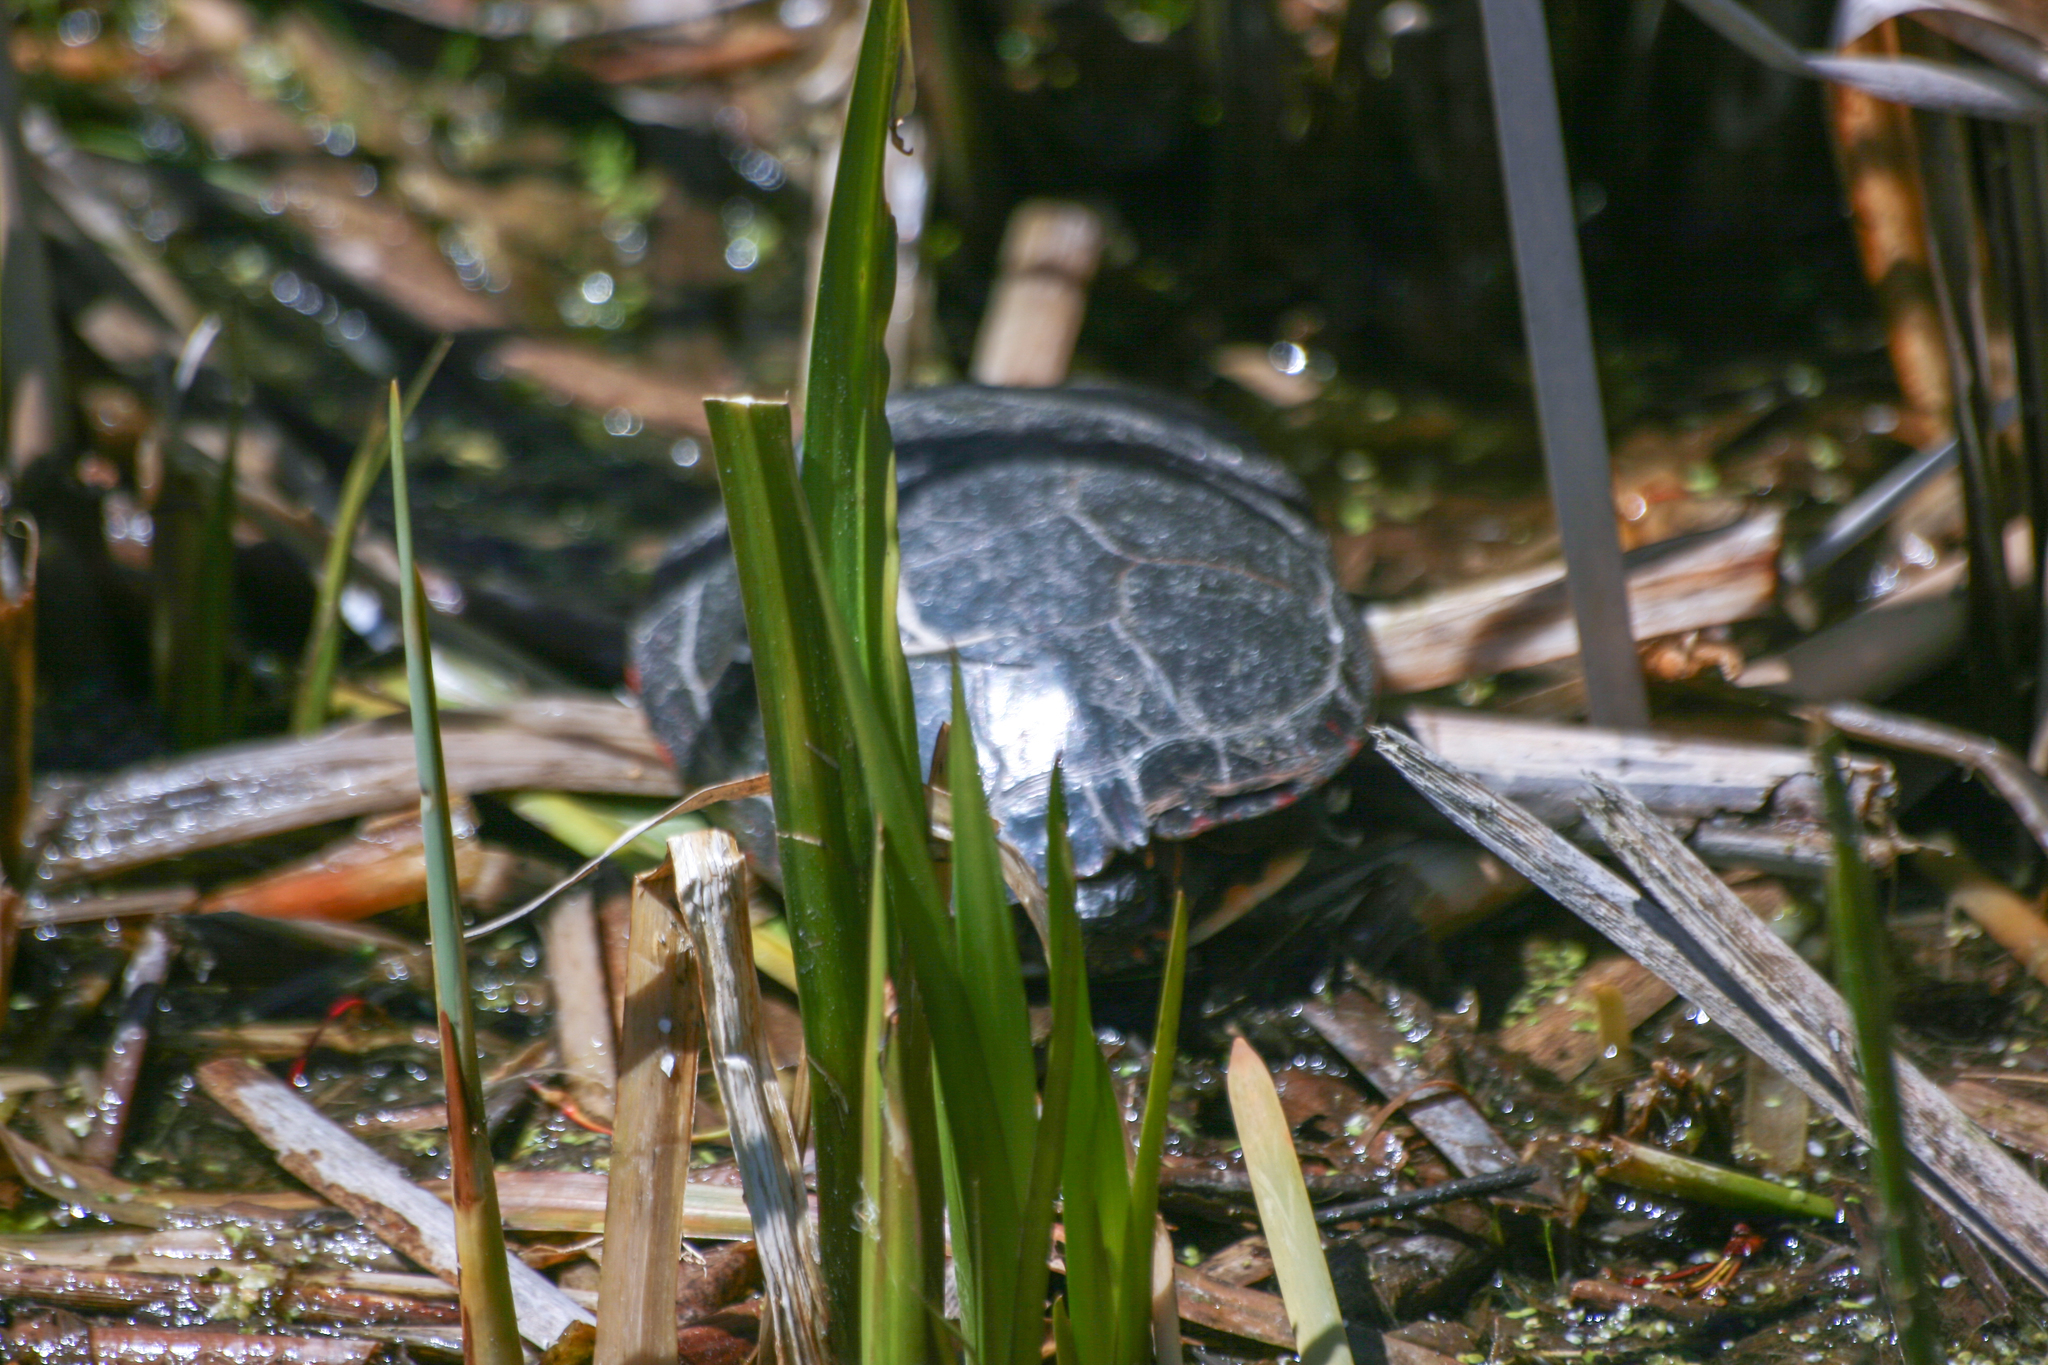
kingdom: Animalia
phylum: Chordata
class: Testudines
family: Emydidae
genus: Chrysemys
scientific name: Chrysemys picta
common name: Painted turtle
